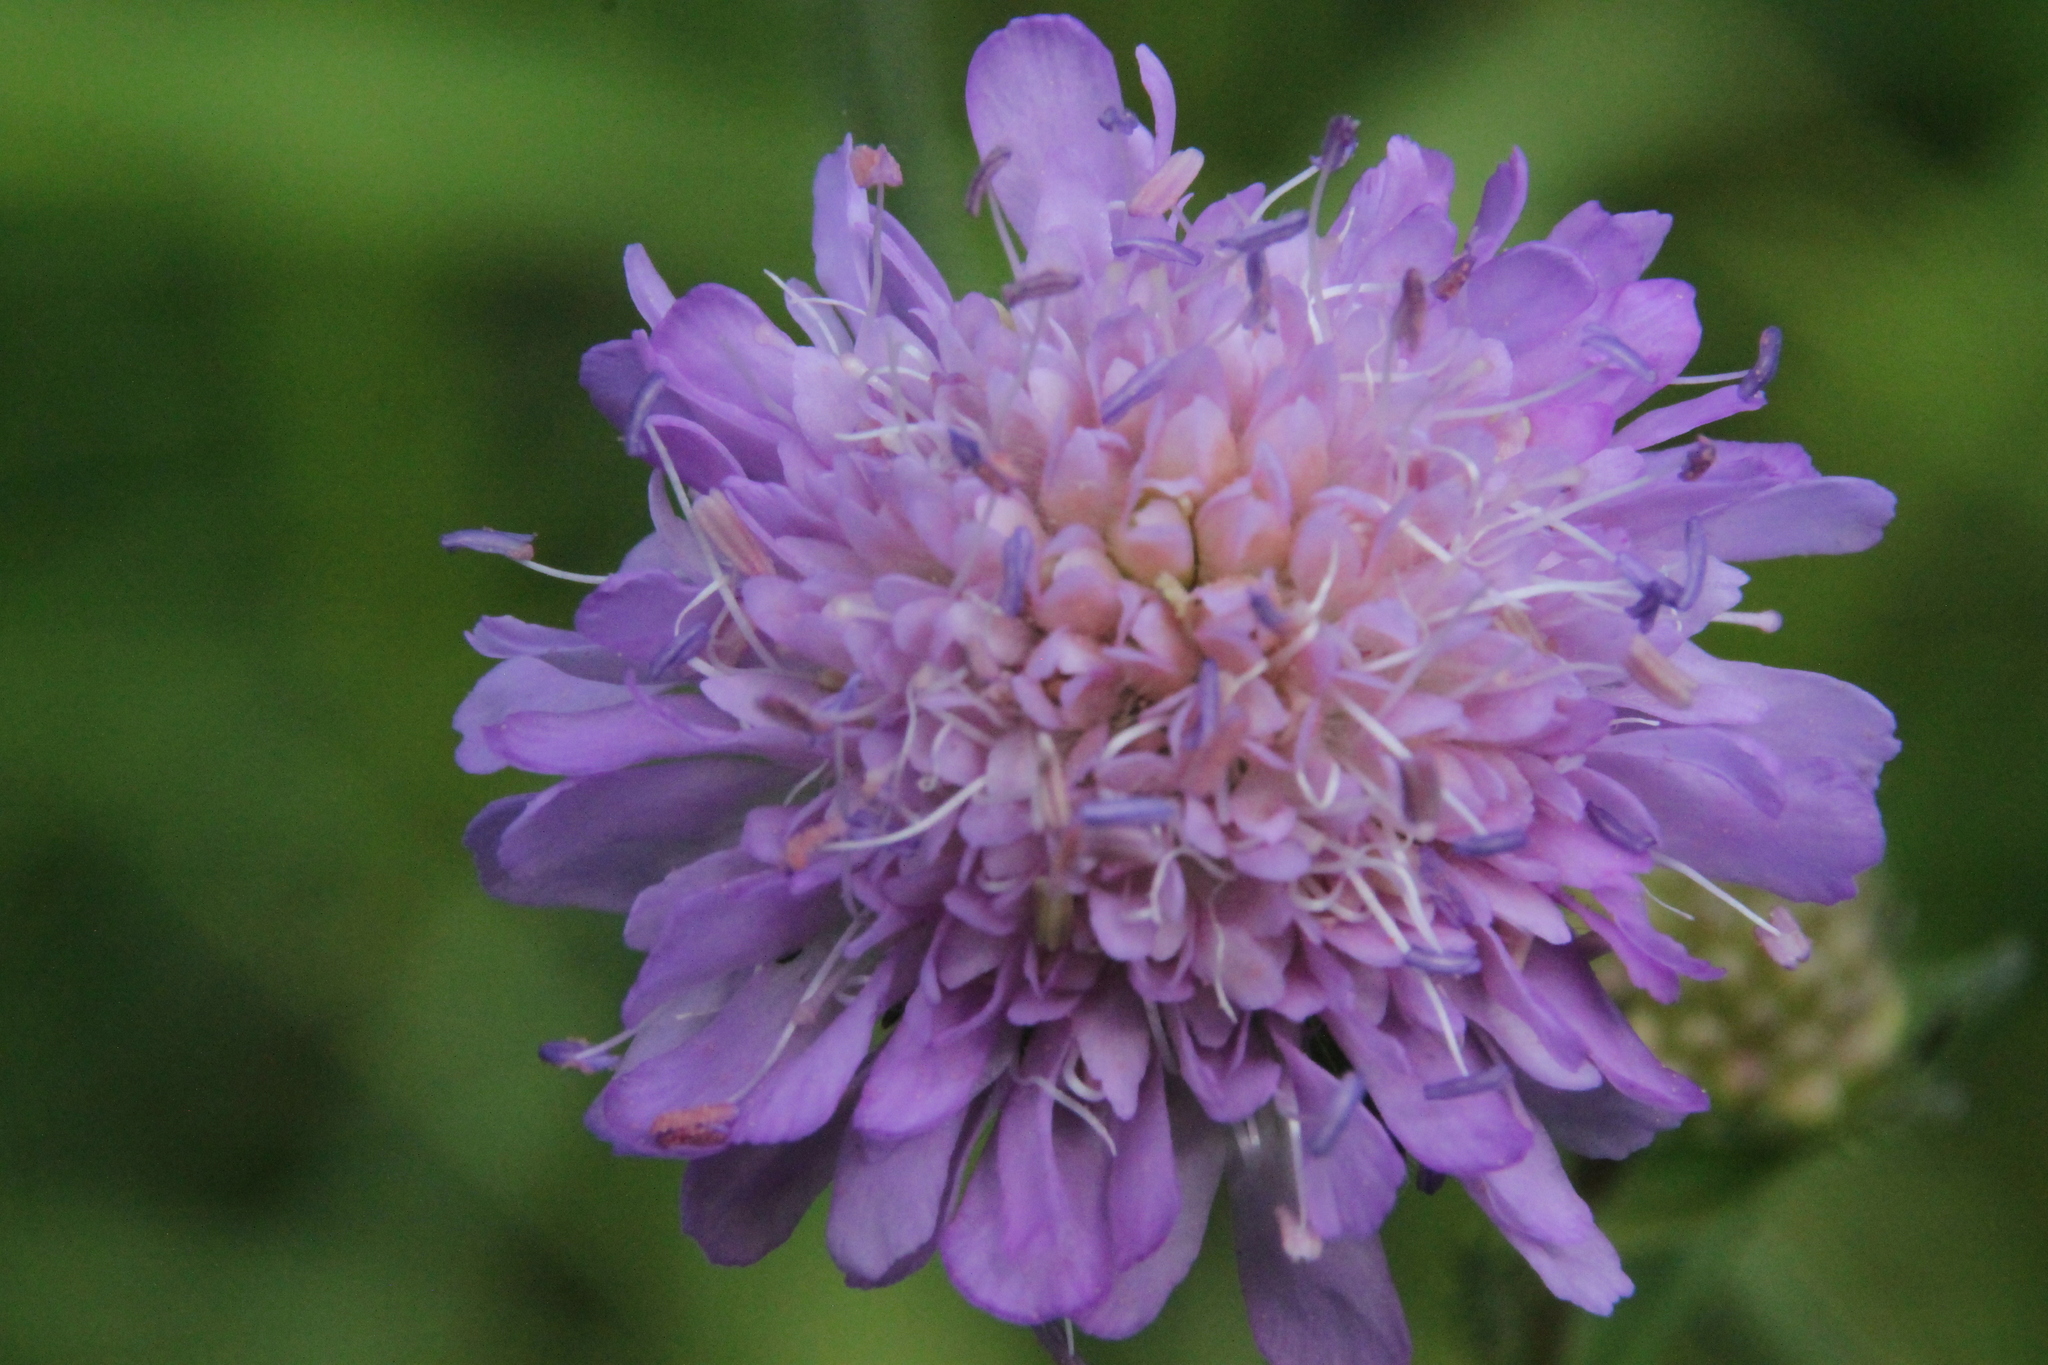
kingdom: Plantae
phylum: Tracheophyta
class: Magnoliopsida
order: Dipsacales
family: Caprifoliaceae
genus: Knautia
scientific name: Knautia arvensis
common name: Field scabiosa
